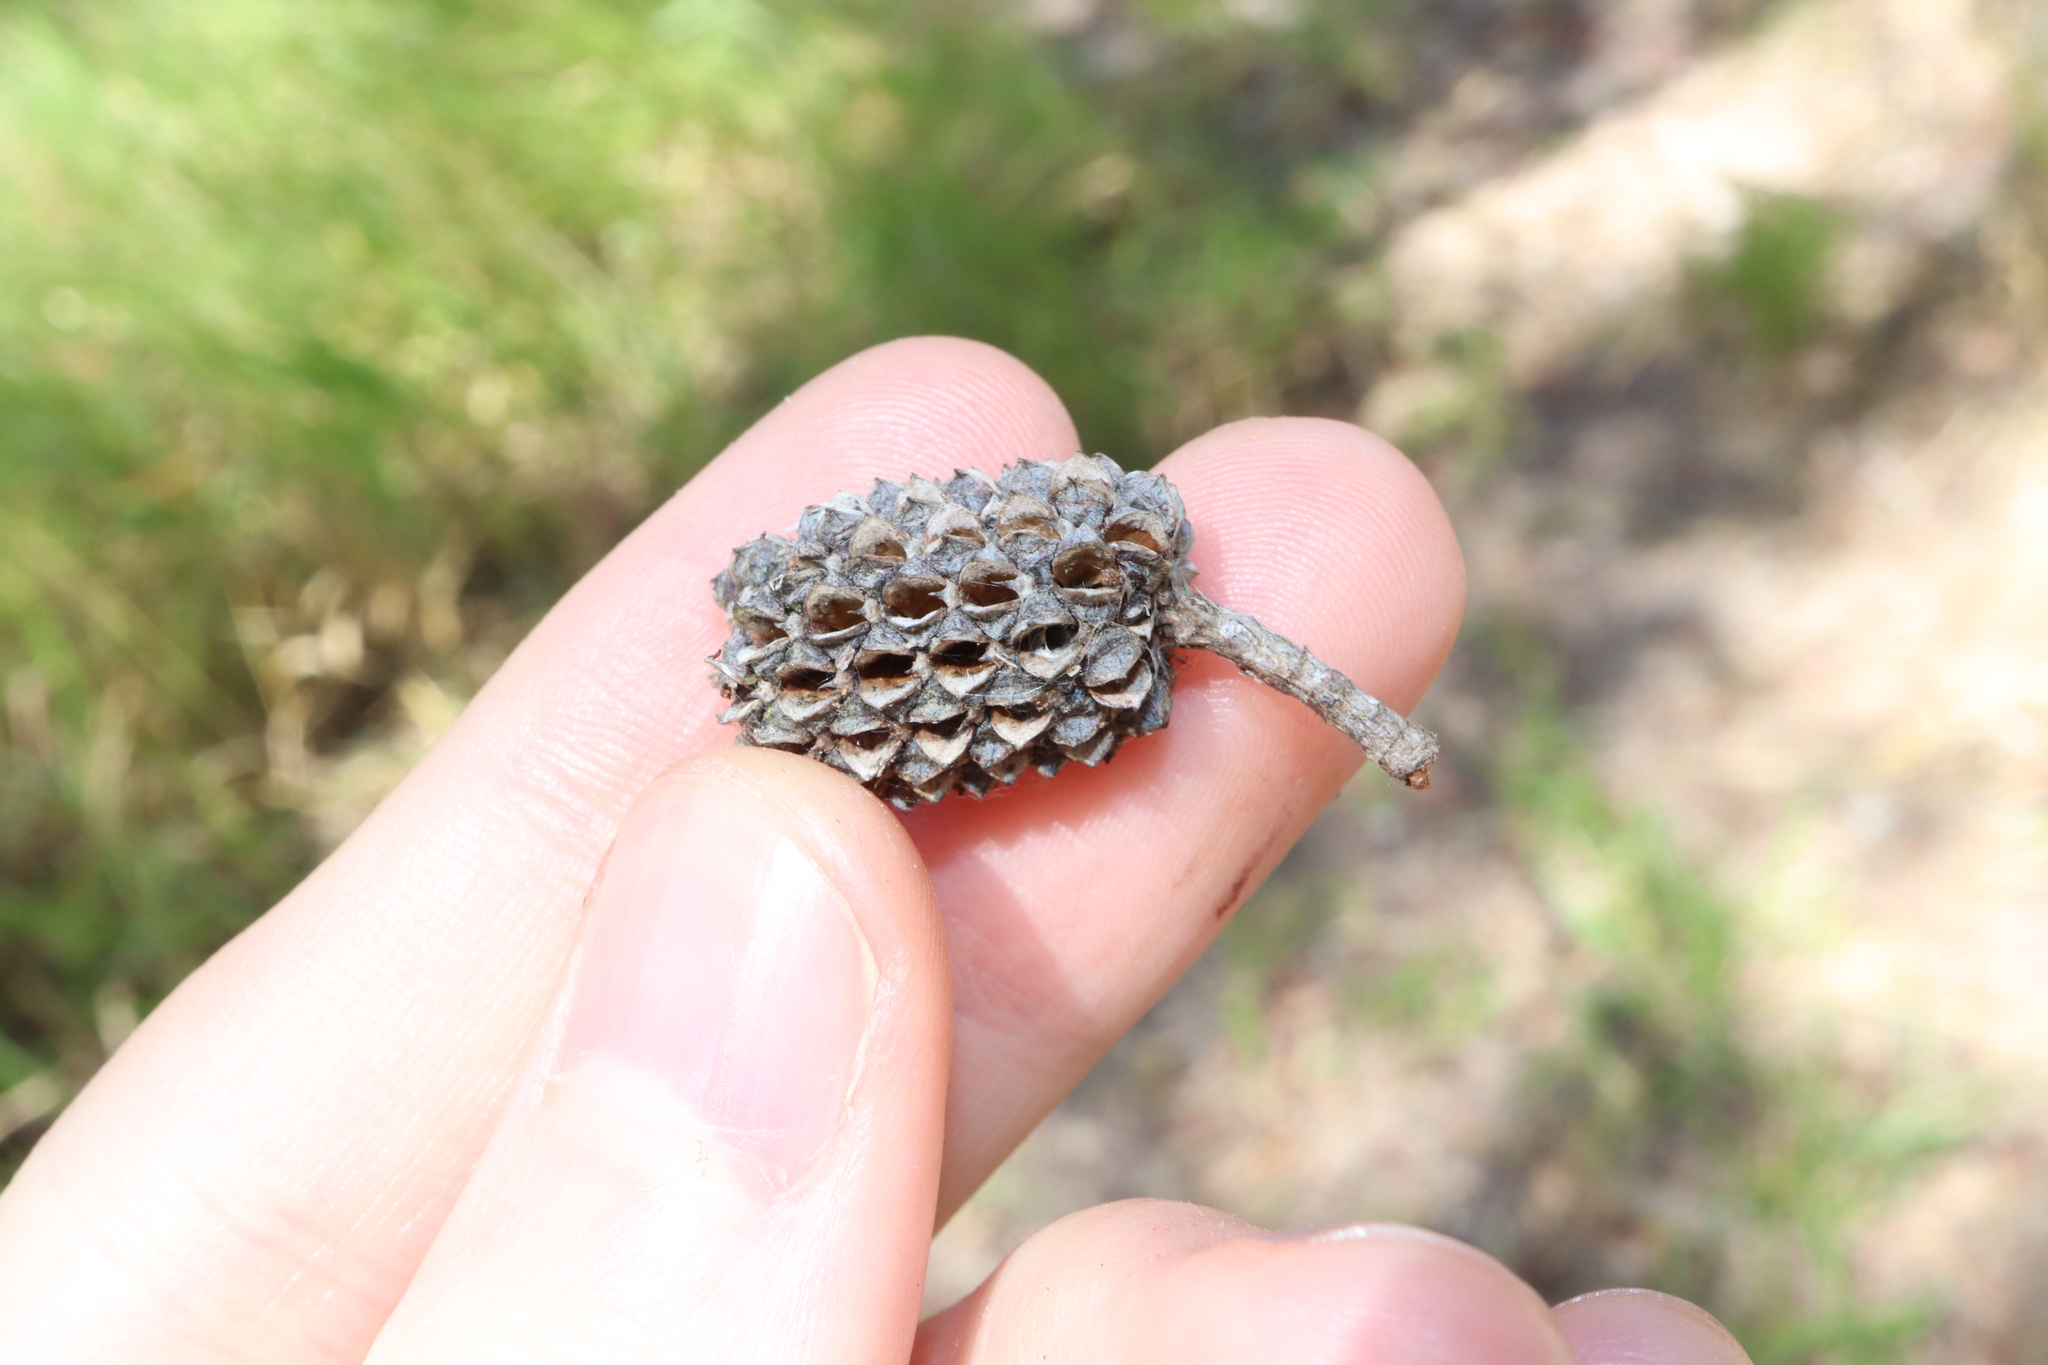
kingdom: Plantae
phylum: Tracheophyta
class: Magnoliopsida
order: Fagales
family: Casuarinaceae
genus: Allocasuarina
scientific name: Allocasuarina littoralis
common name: Black she-oak
